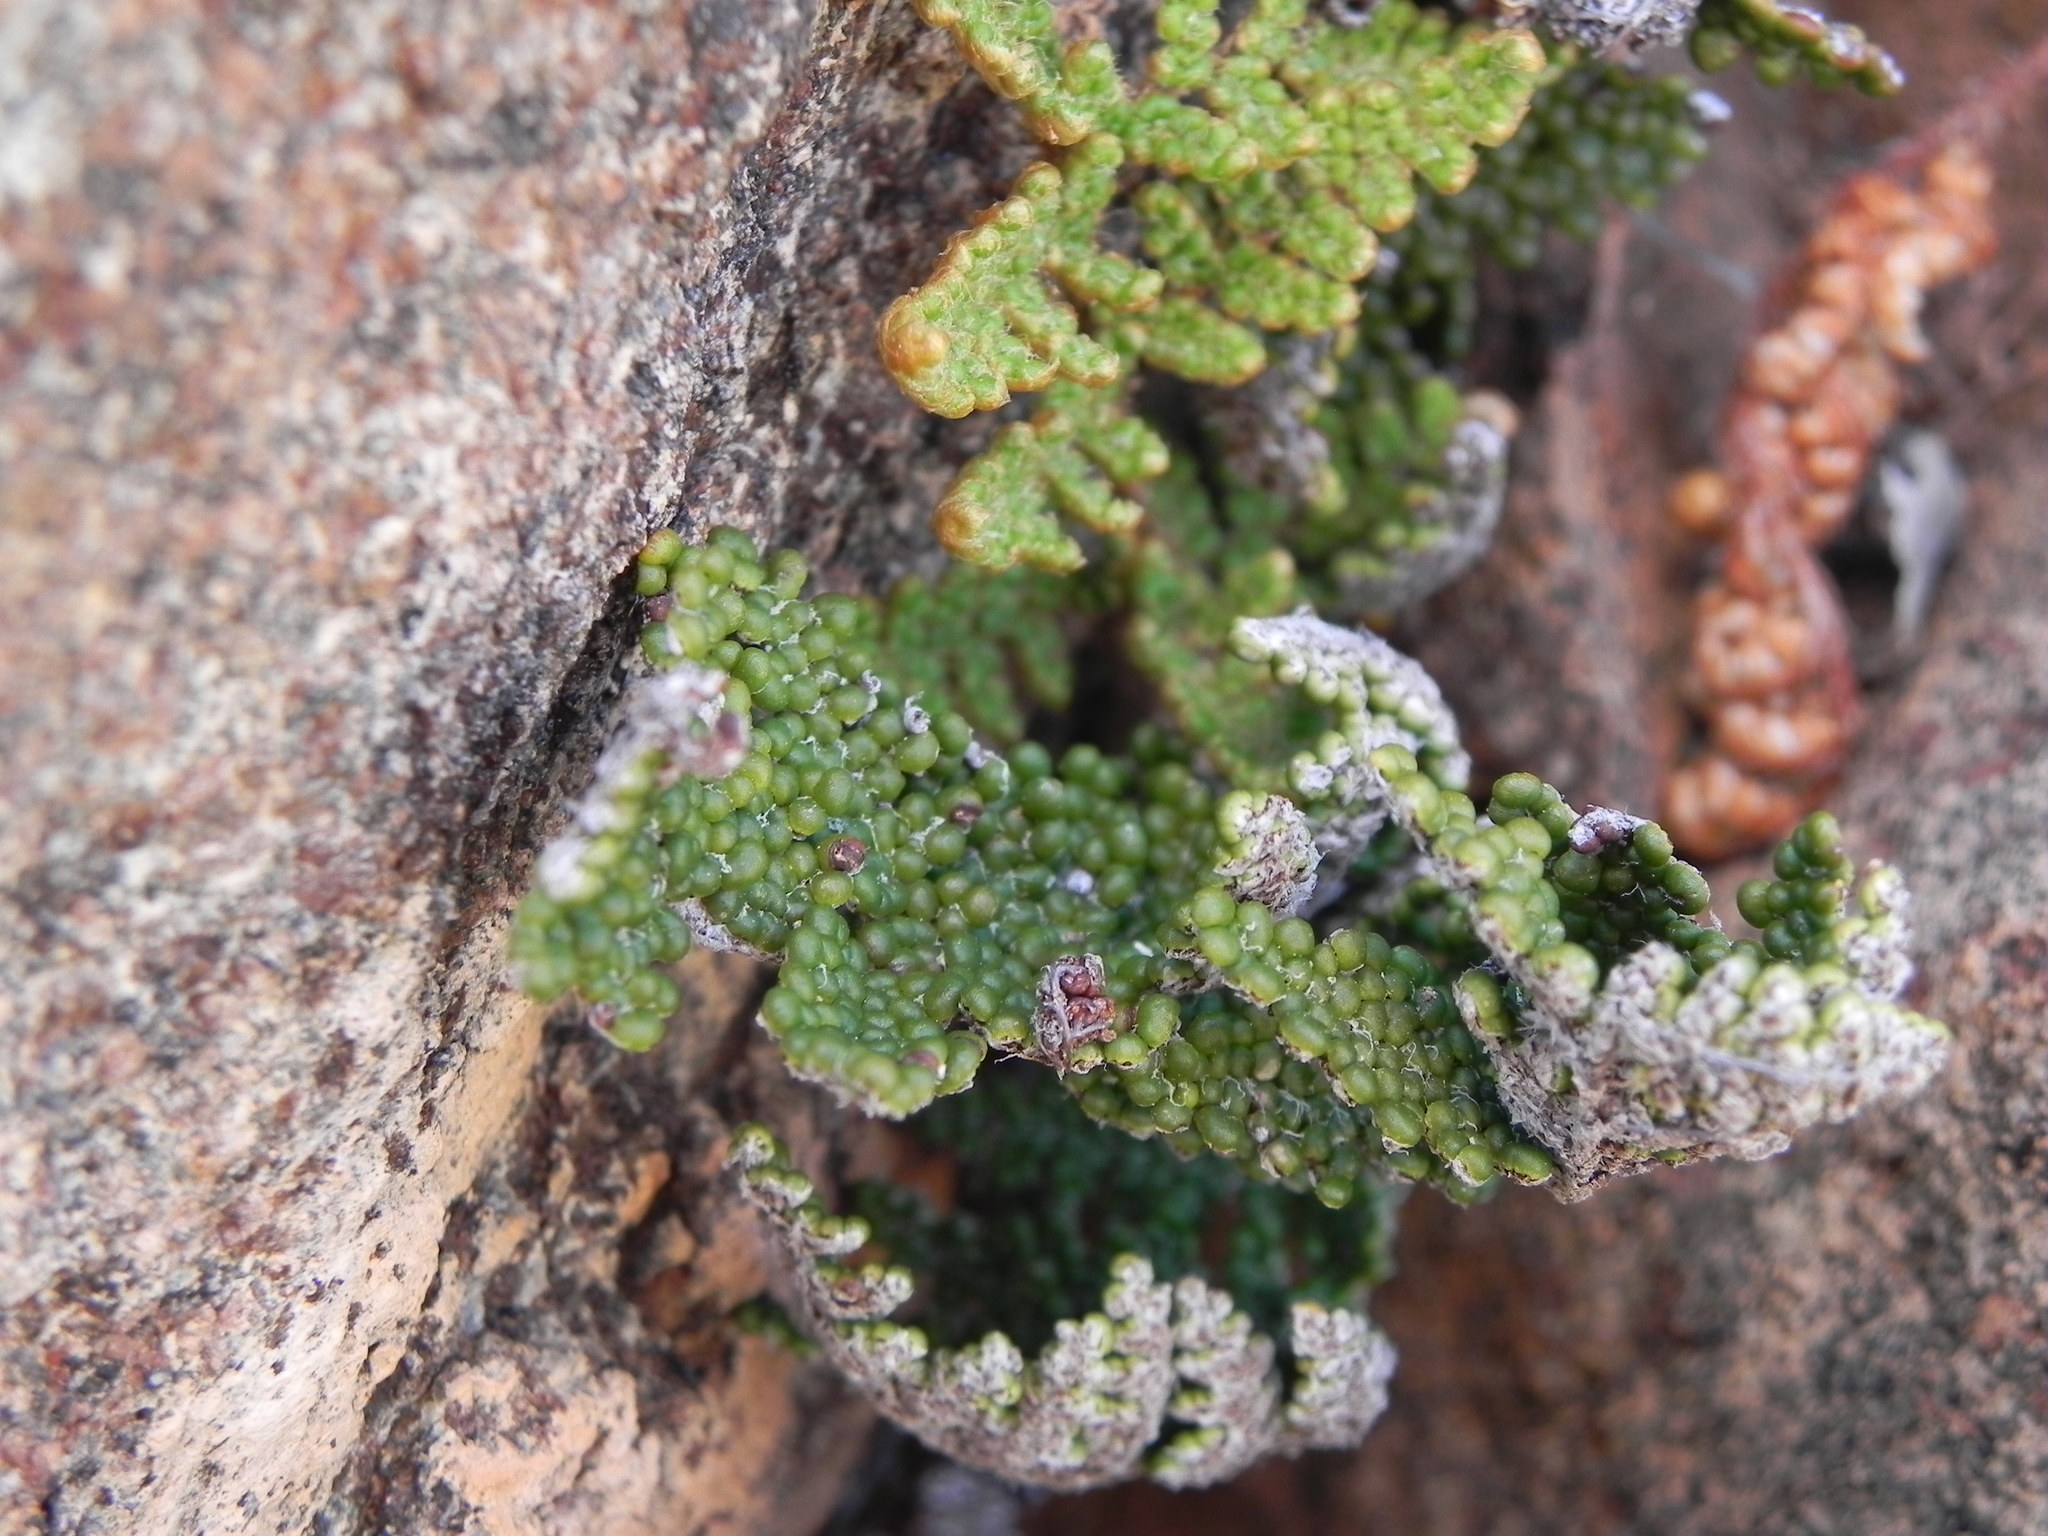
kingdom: Plantae
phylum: Tracheophyta
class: Polypodiopsida
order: Polypodiales
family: Pteridaceae
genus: Myriopteris
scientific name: Myriopteris covillei
